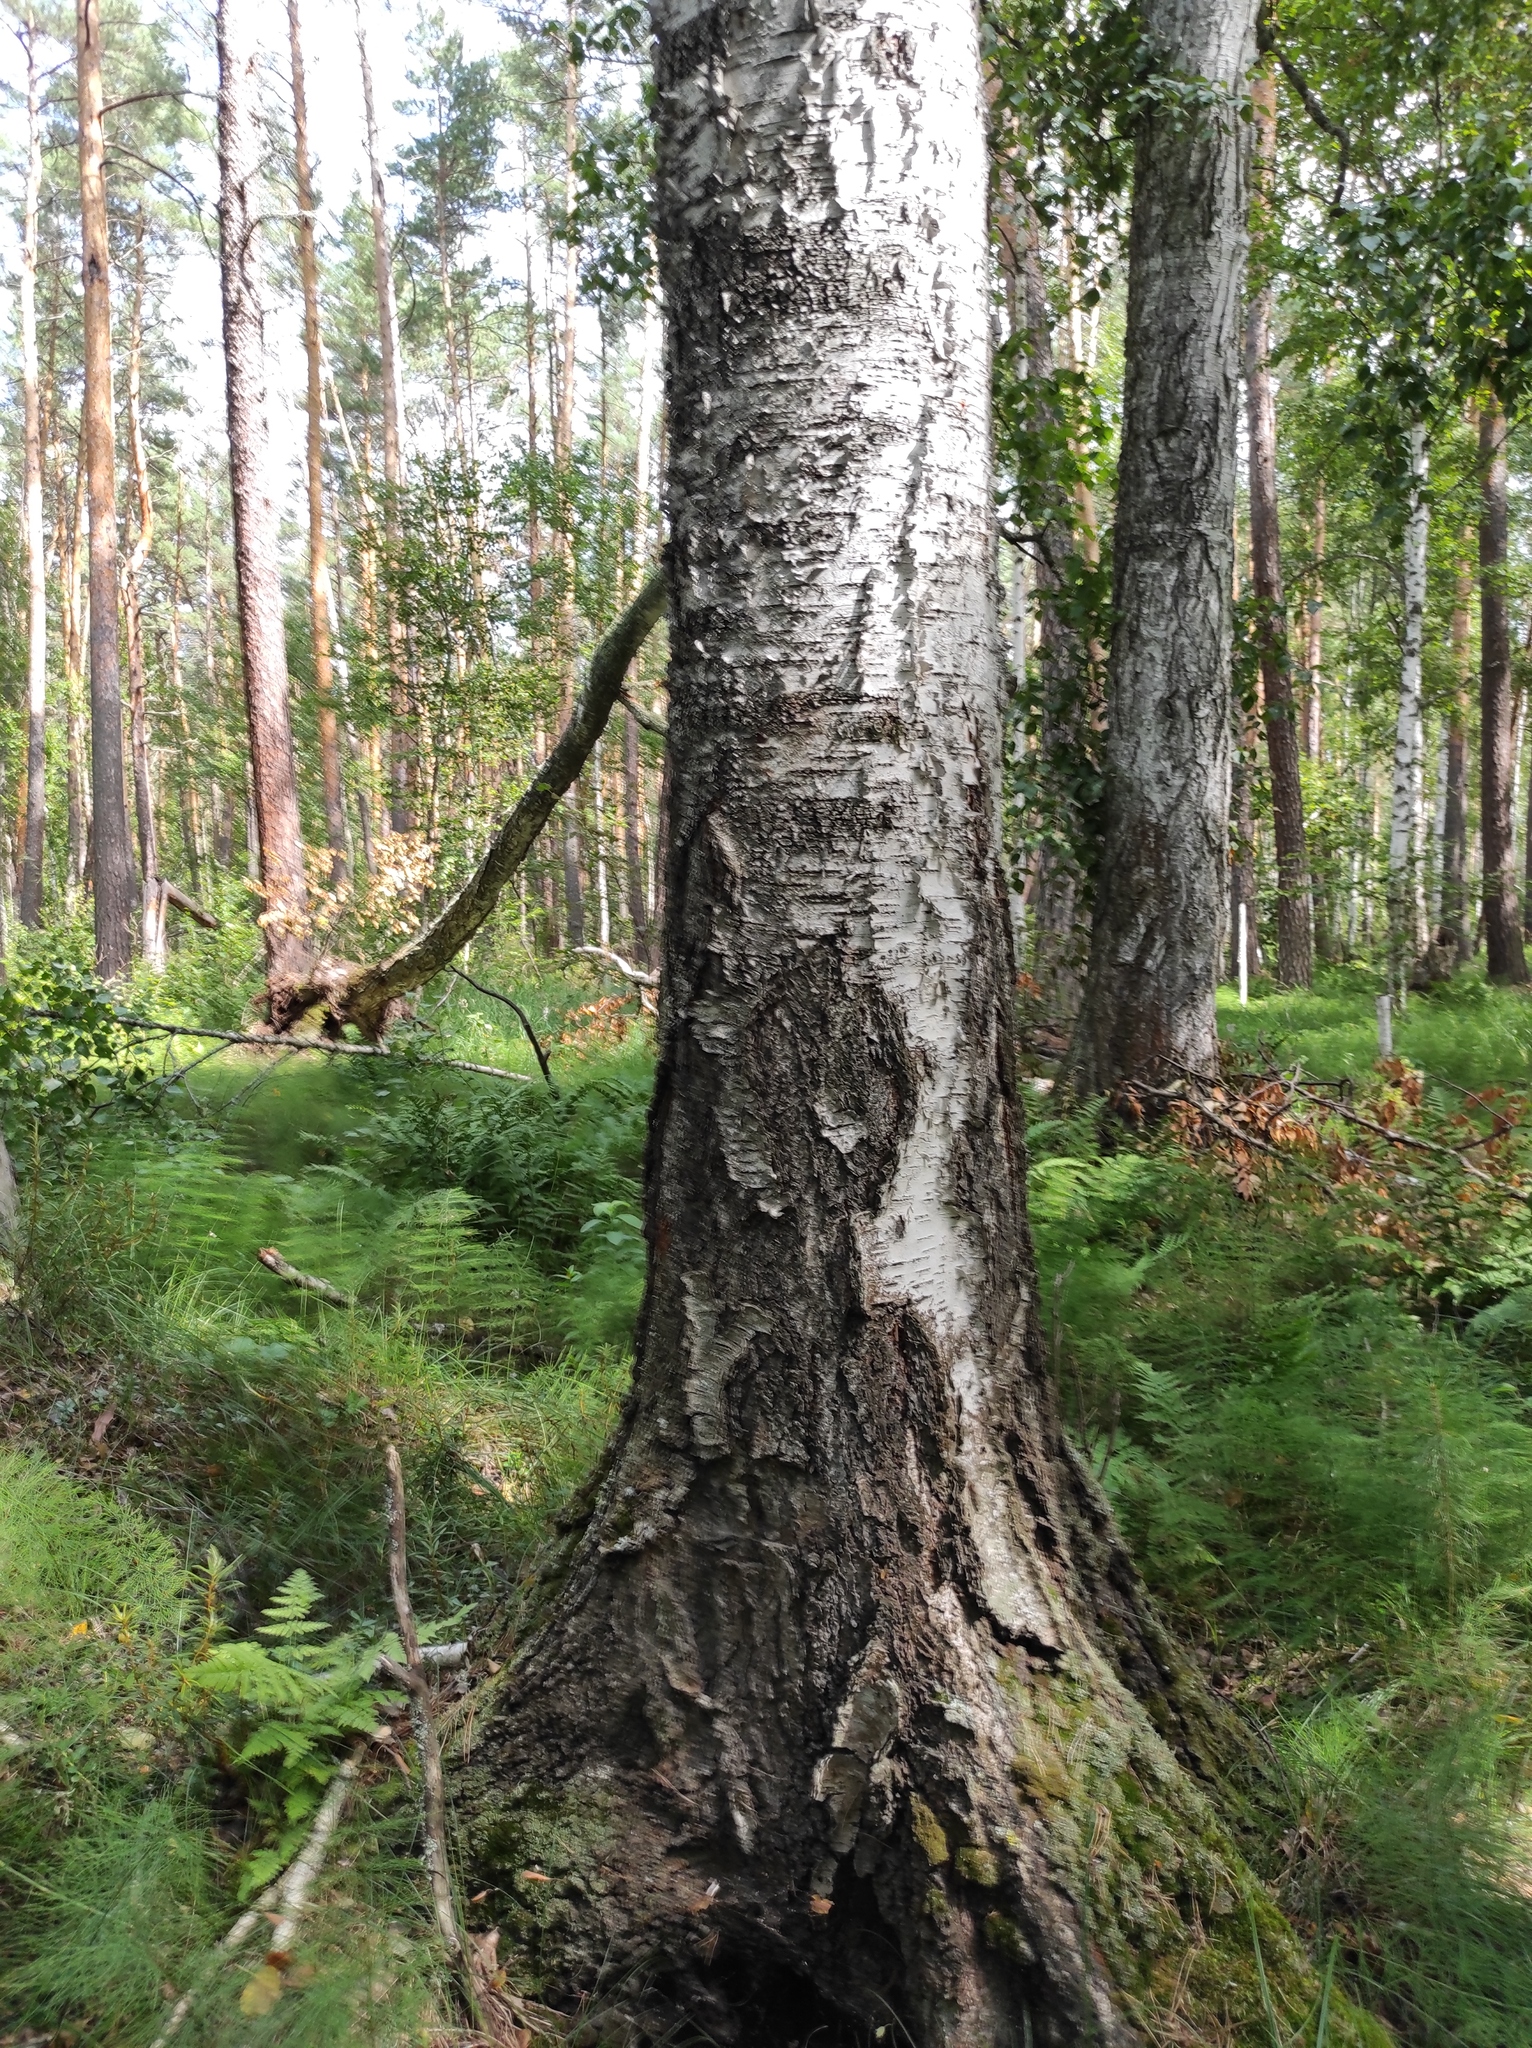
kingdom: Plantae
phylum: Tracheophyta
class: Magnoliopsida
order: Fagales
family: Betulaceae
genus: Betula
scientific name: Betula pubescens
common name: Downy birch
